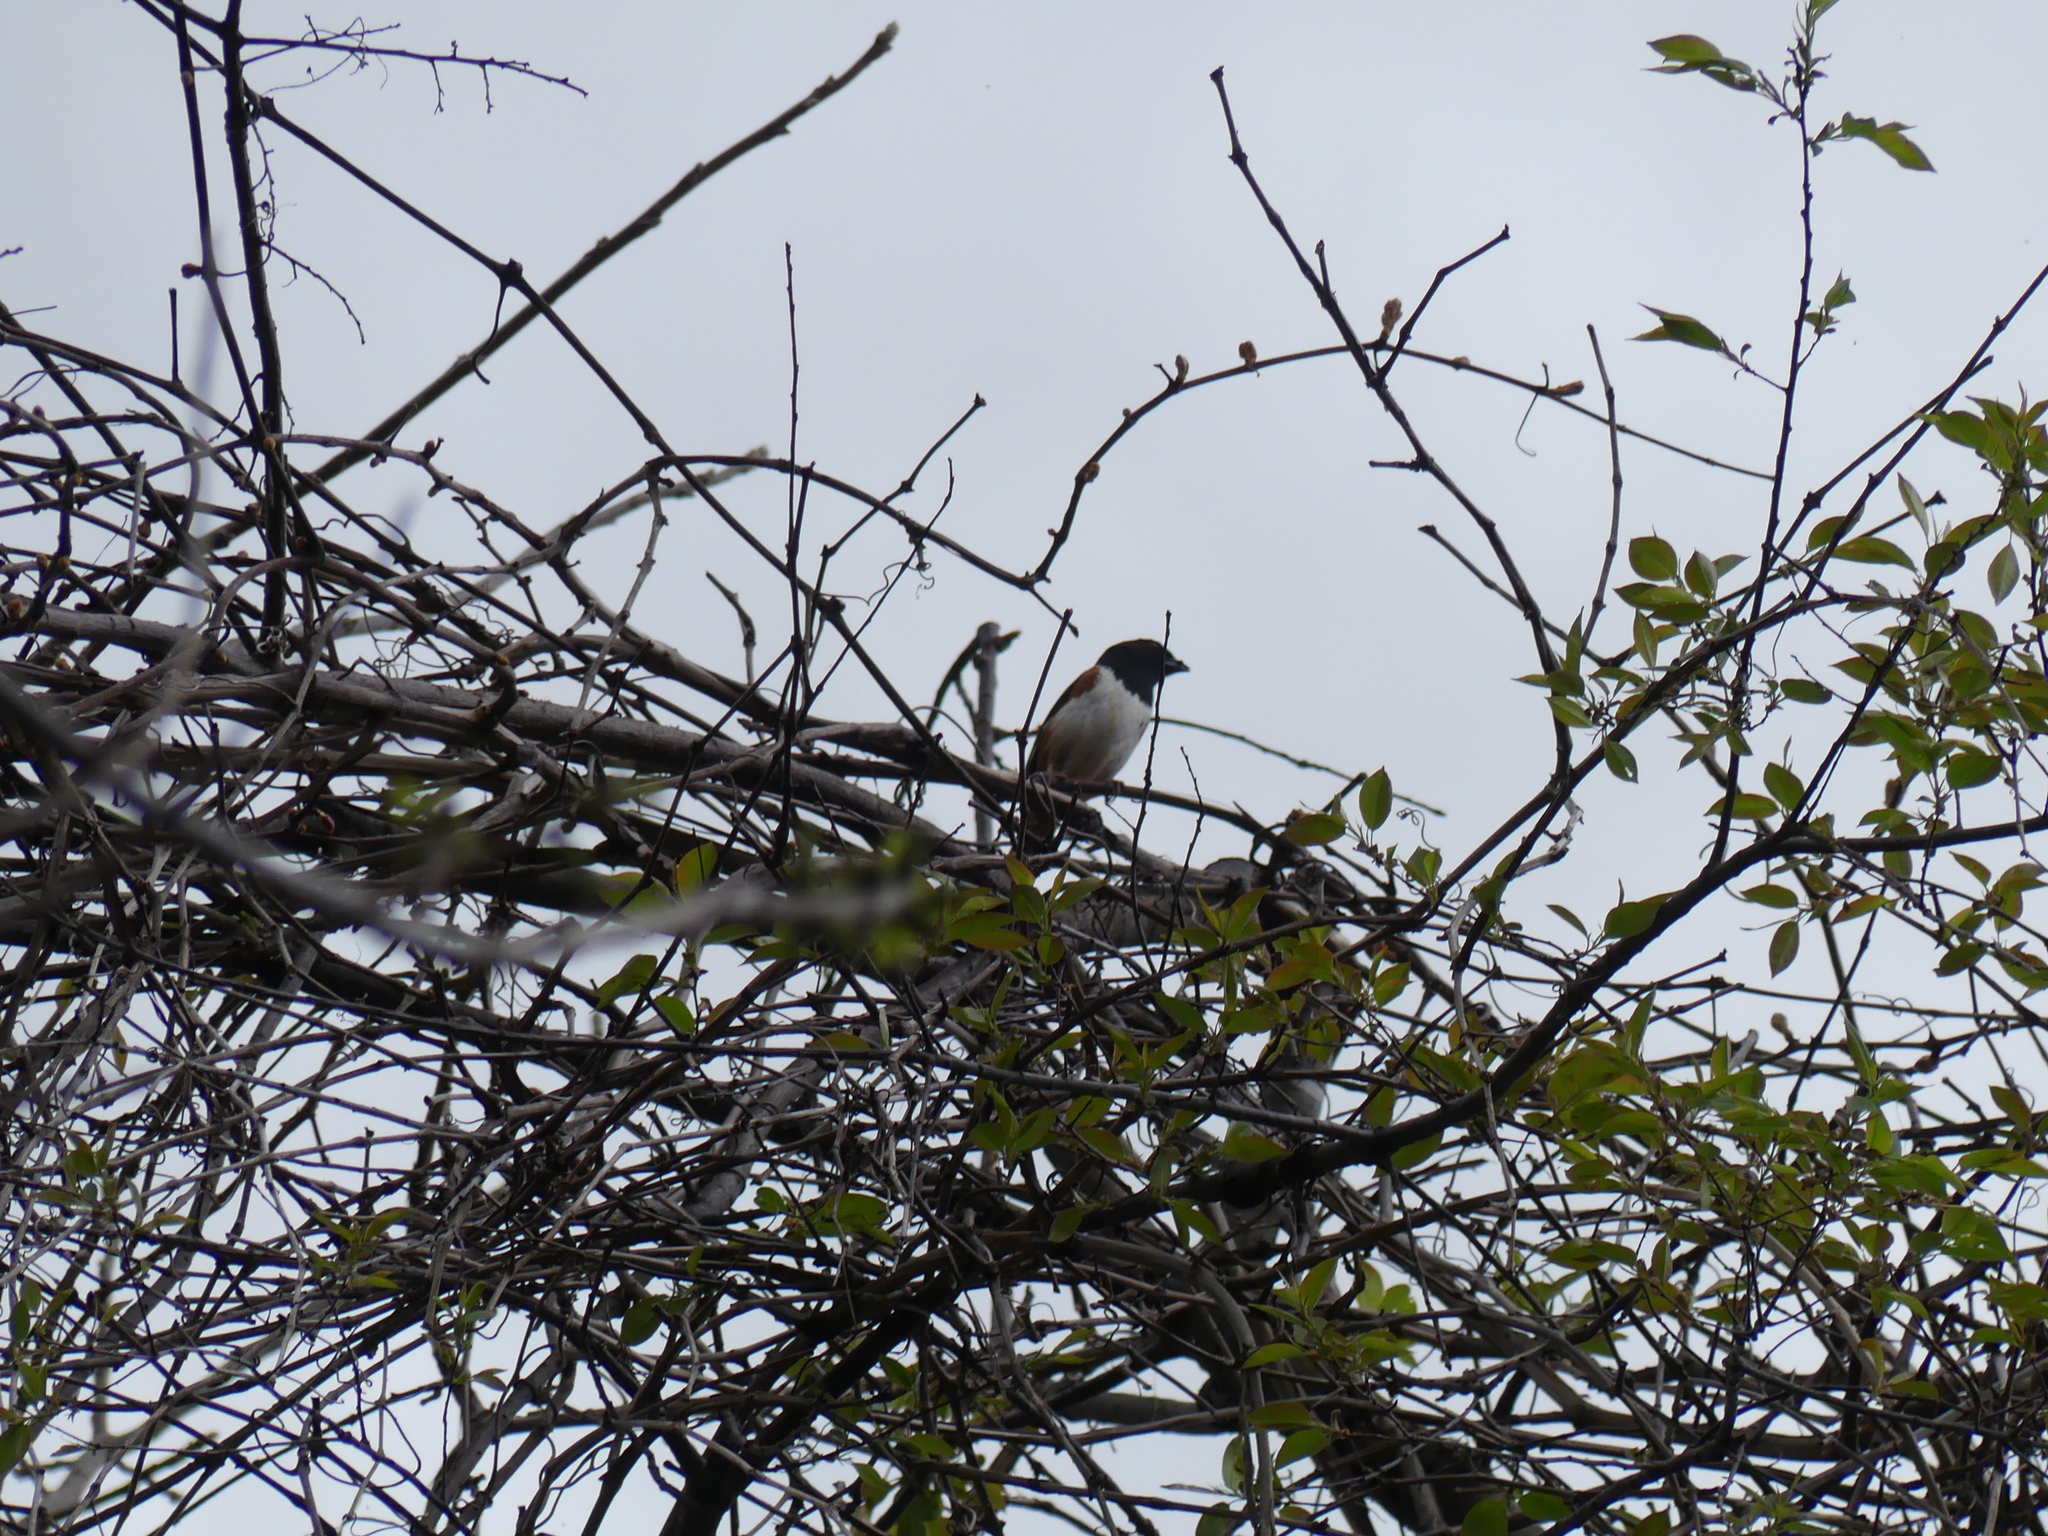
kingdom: Animalia
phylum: Chordata
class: Aves
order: Passeriformes
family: Passerellidae
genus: Pipilo
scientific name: Pipilo erythrophthalmus
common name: Eastern towhee
